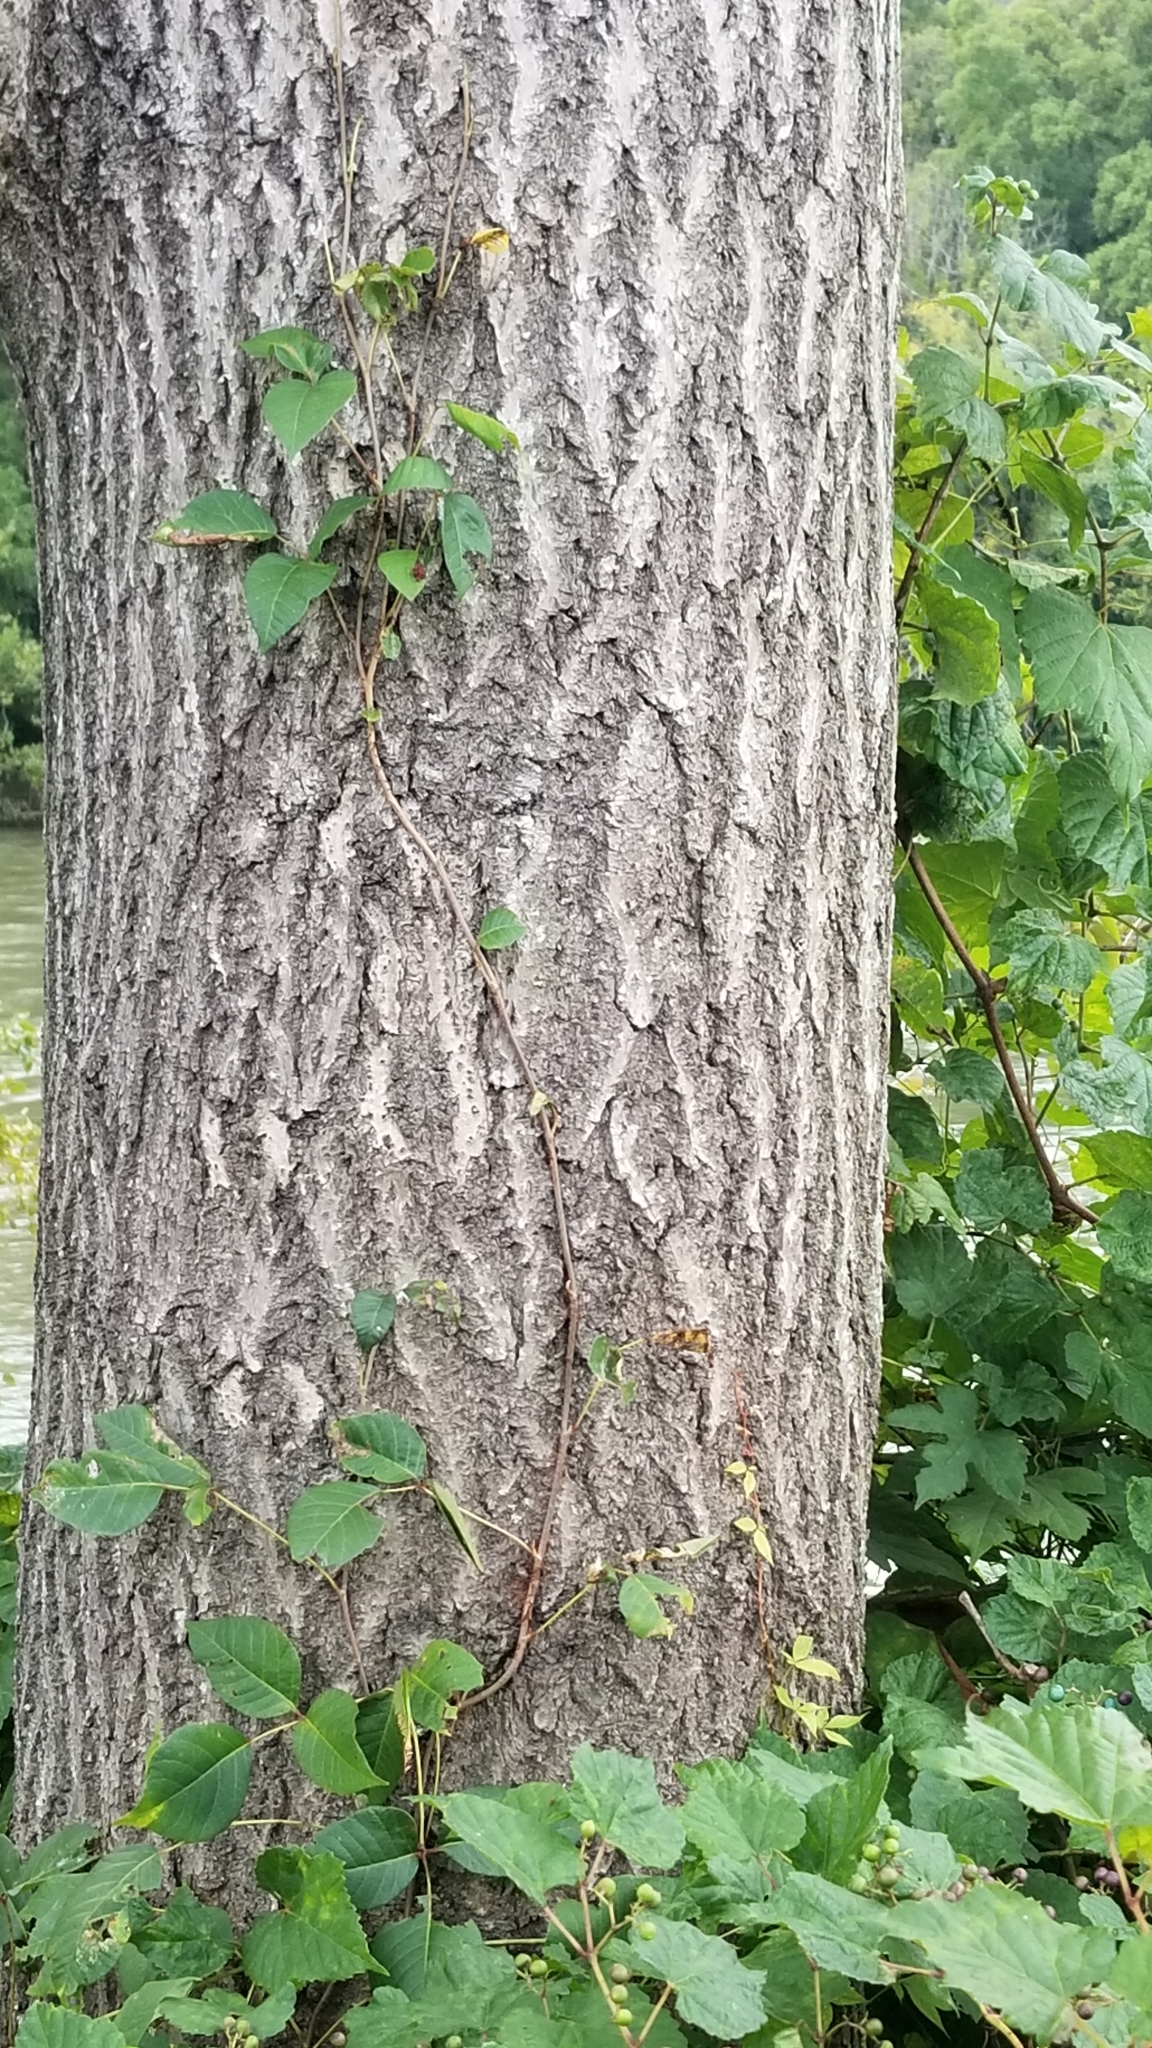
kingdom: Plantae
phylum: Tracheophyta
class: Magnoliopsida
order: Lamiales
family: Paulowniaceae
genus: Paulownia
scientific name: Paulownia tomentosa
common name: Foxglove-tree
